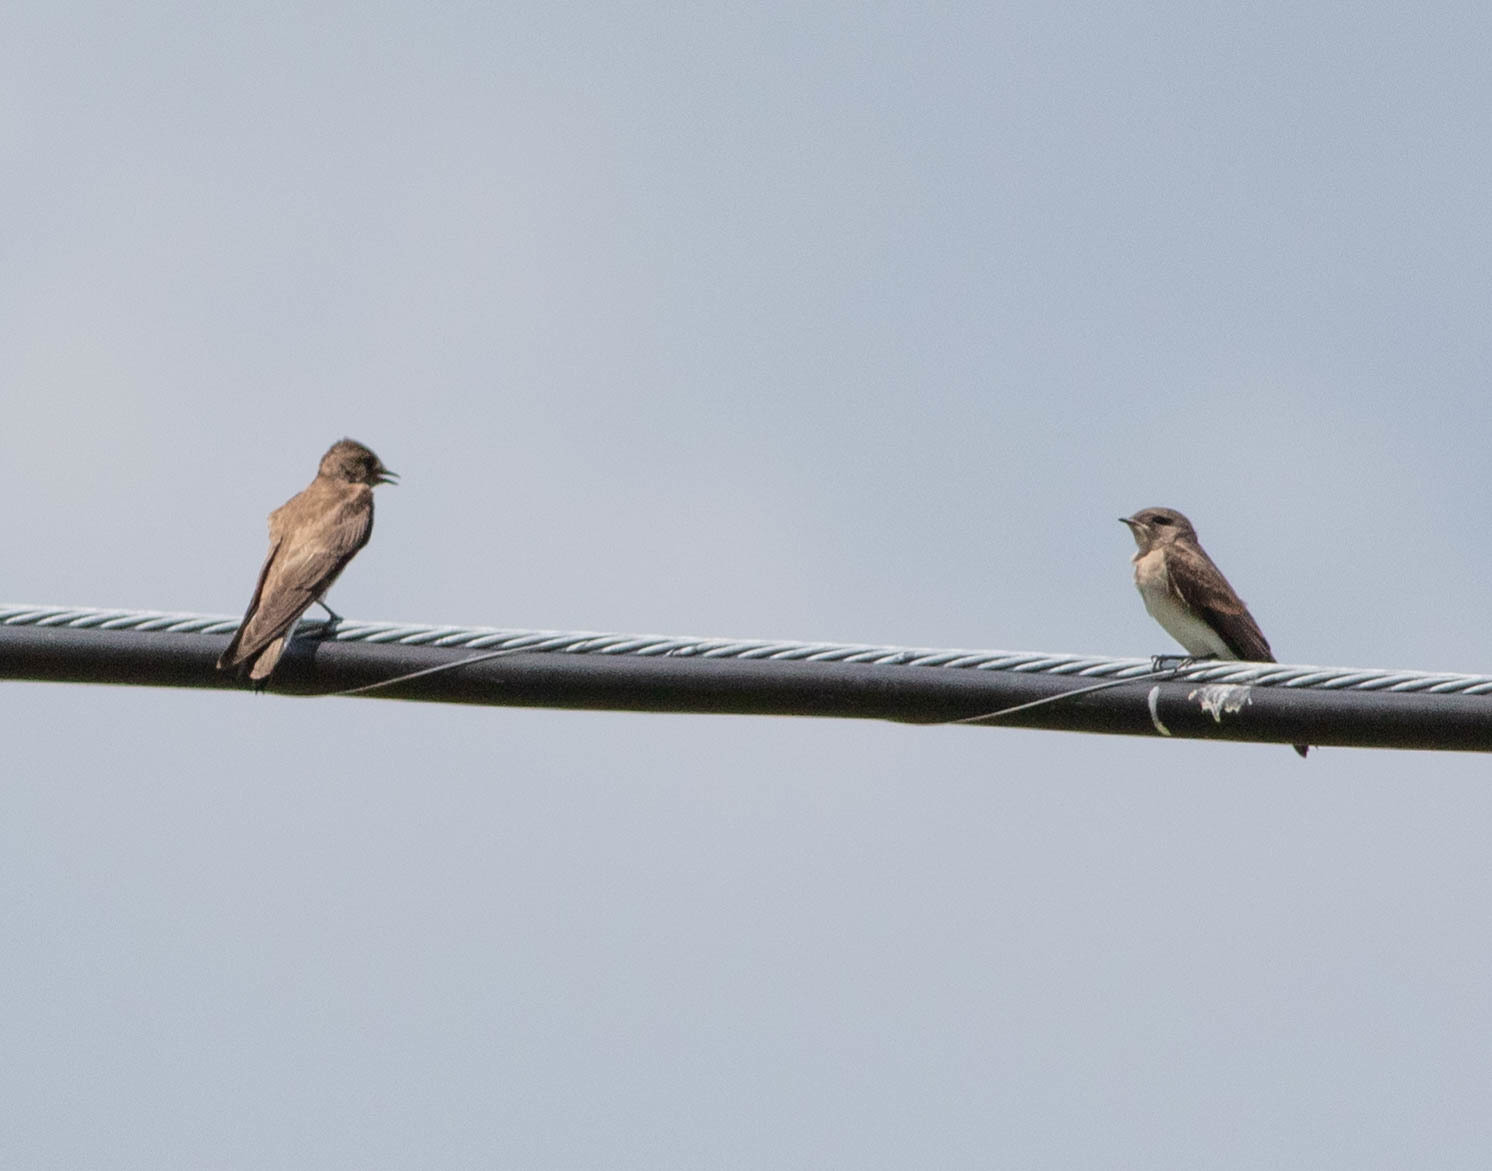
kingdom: Animalia
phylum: Chordata
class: Aves
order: Passeriformes
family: Hirundinidae
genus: Stelgidopteryx
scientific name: Stelgidopteryx serripennis
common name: Northern rough-winged swallow
